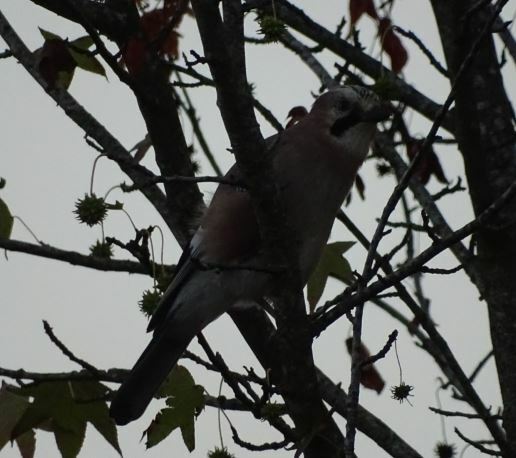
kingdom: Animalia
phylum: Chordata
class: Aves
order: Passeriformes
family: Corvidae
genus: Garrulus
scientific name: Garrulus glandarius
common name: Eurasian jay
